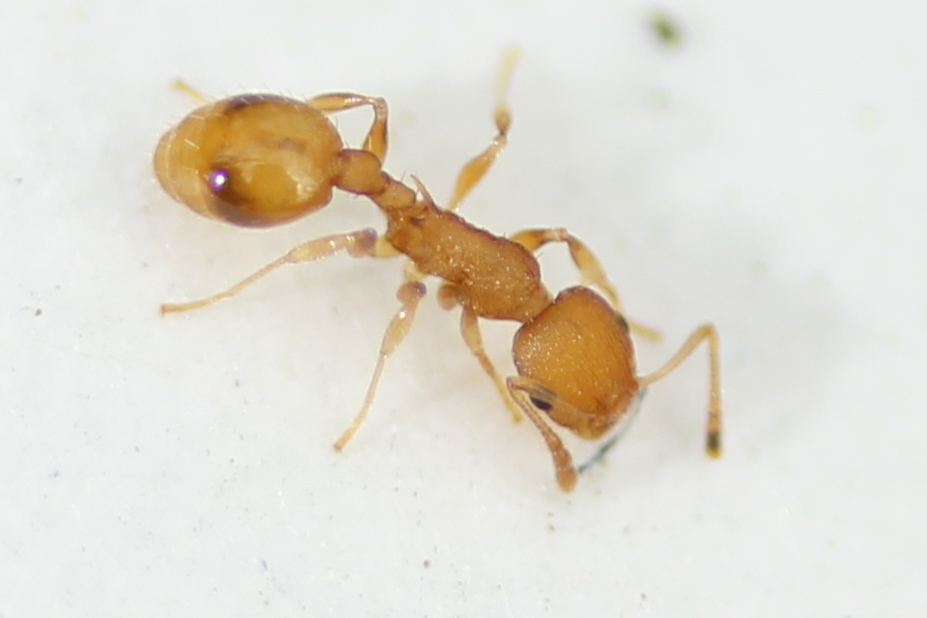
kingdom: Animalia
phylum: Arthropoda
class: Insecta
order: Hymenoptera
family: Formicidae
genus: Temnothorax
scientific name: Temnothorax curvispinosus
